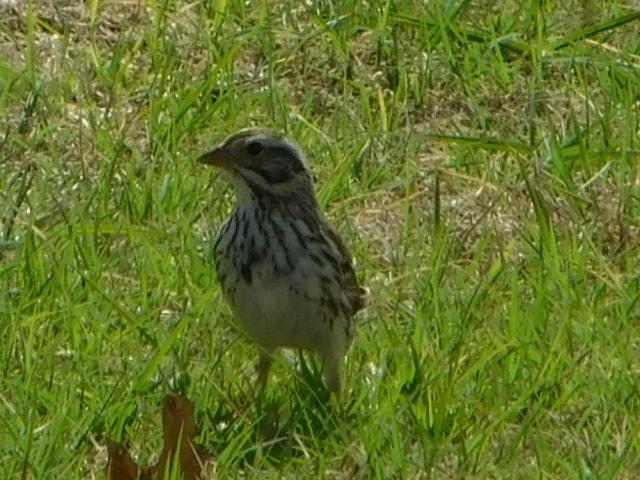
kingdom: Animalia
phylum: Chordata
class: Aves
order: Passeriformes
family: Passerellidae
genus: Passerculus
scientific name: Passerculus sandwichensis
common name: Savannah sparrow
